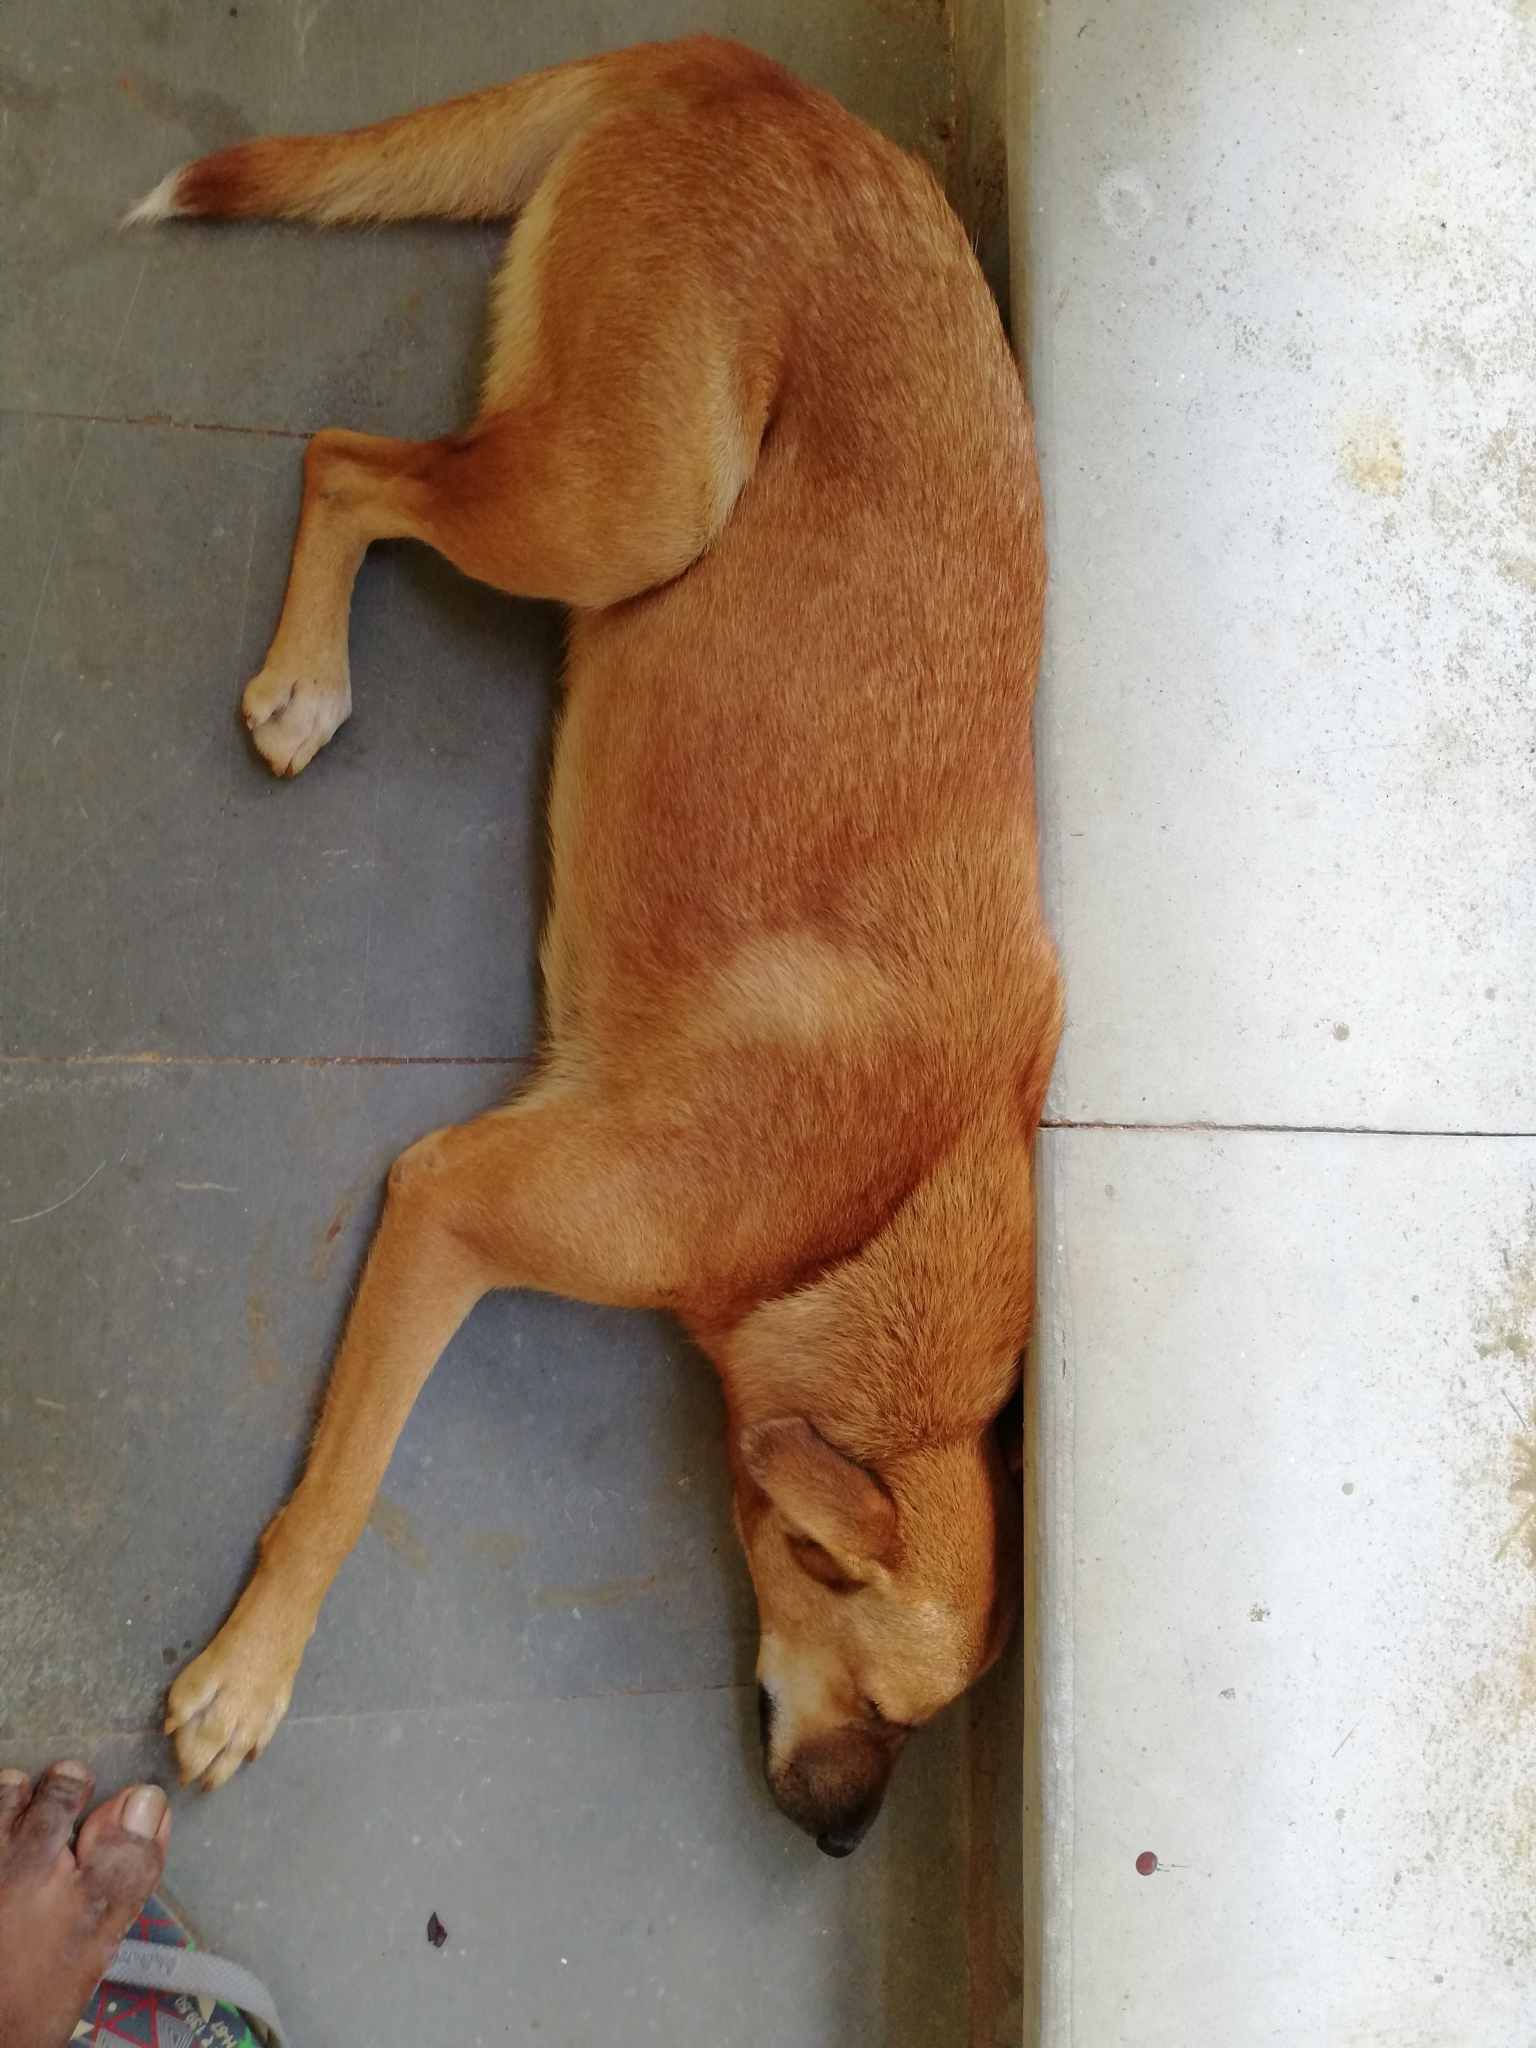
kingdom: Animalia
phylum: Chordata
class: Mammalia
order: Carnivora
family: Canidae
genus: Canis
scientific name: Canis lupus
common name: Gray wolf
